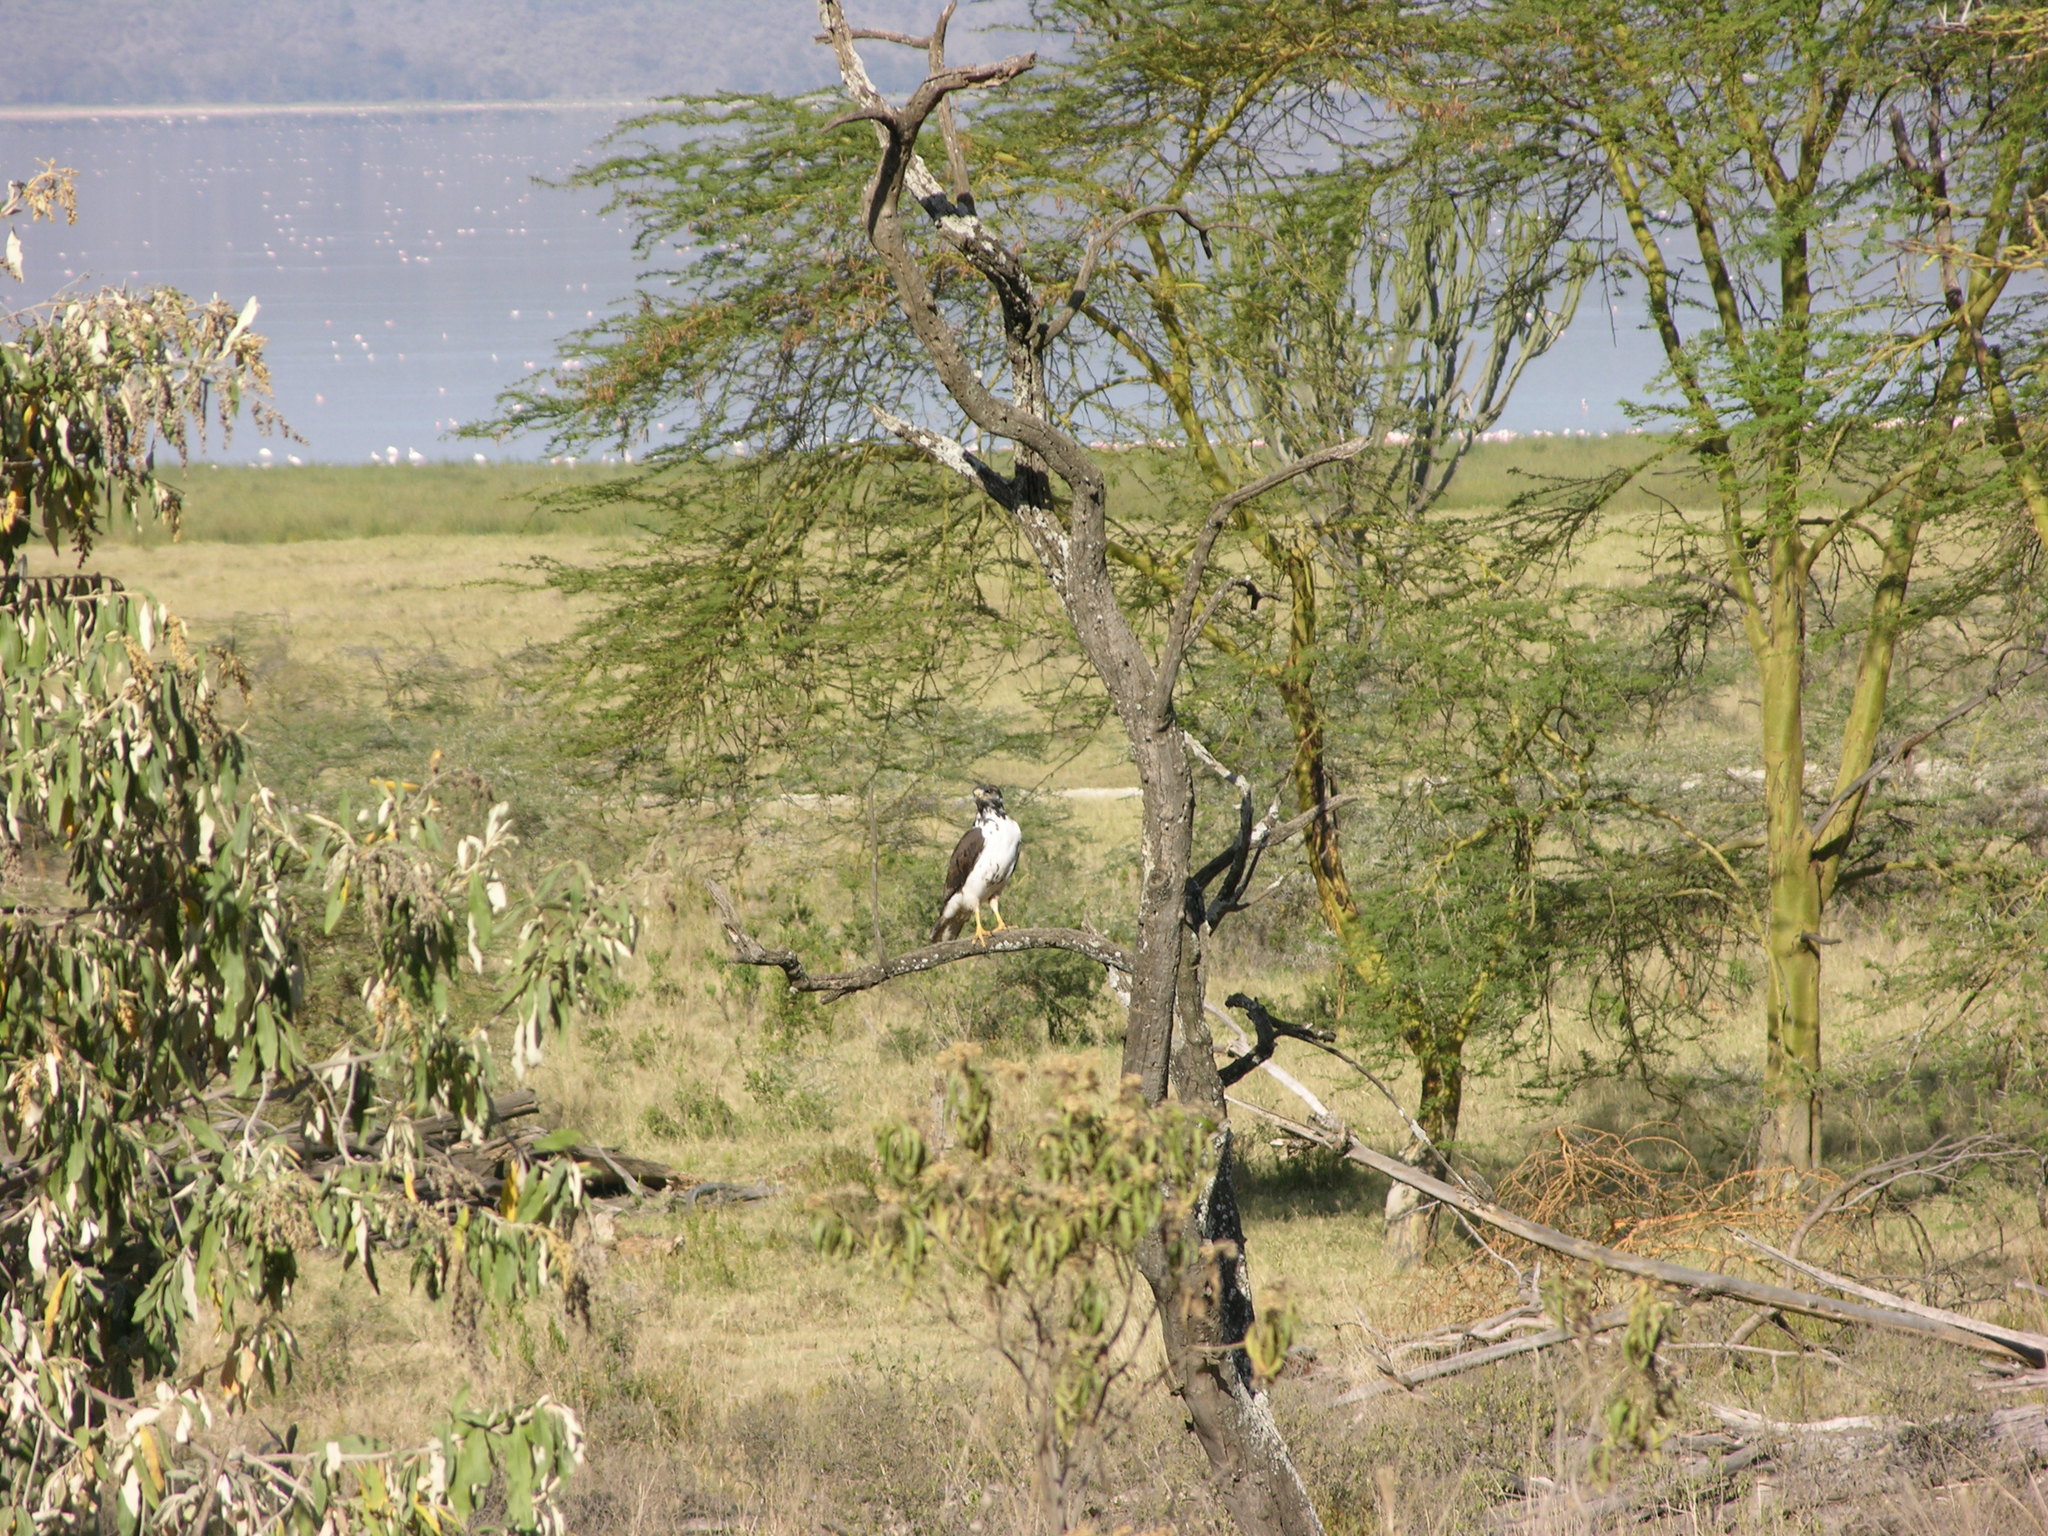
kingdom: Animalia
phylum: Chordata
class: Aves
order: Accipitriformes
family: Accipitridae
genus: Buteo
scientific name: Buteo augur
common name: Augur buzzard
